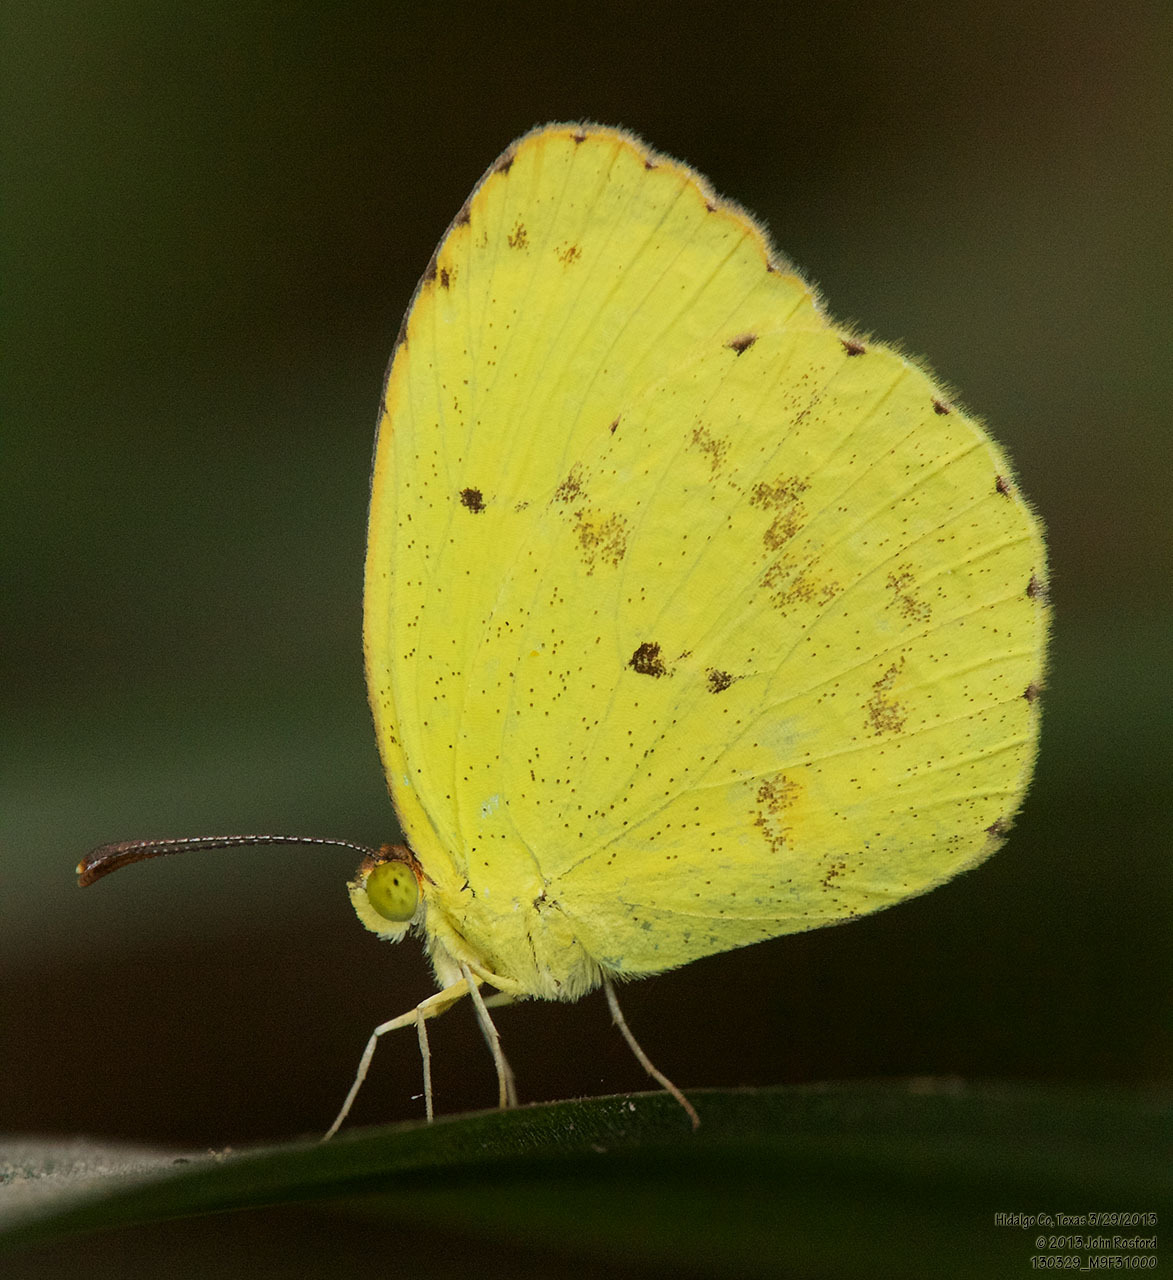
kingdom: Animalia
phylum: Arthropoda
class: Insecta
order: Lepidoptera
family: Pieridae
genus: Pyrisitia
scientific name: Pyrisitia nise
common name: Mimosa yellow
